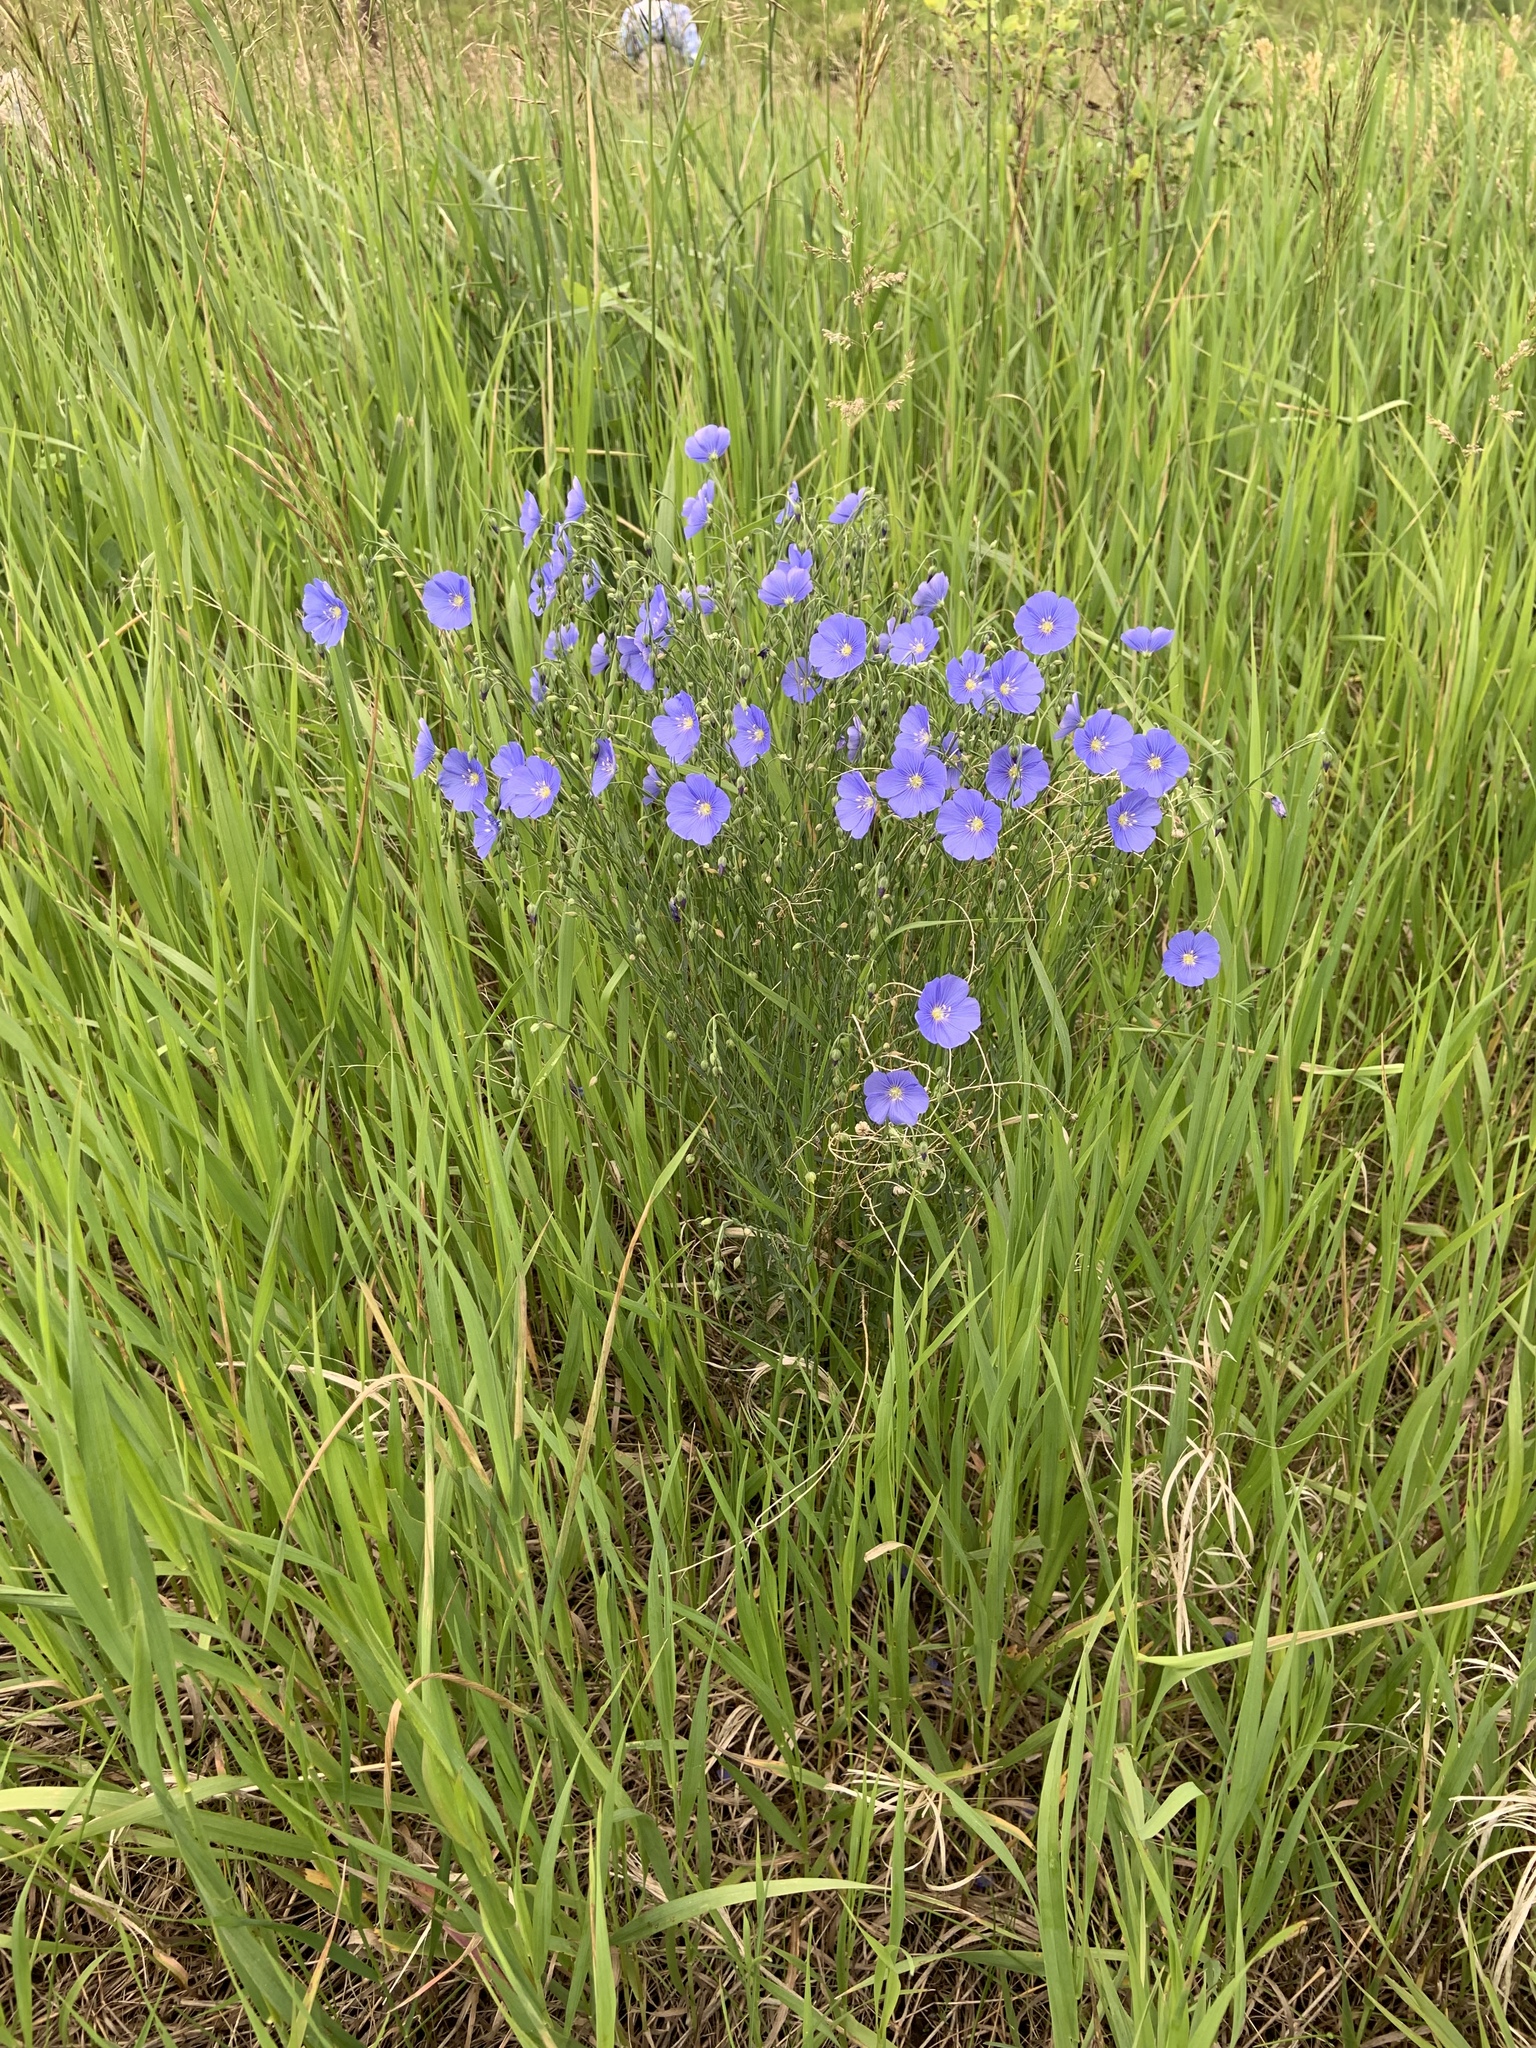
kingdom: Plantae
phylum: Tracheophyta
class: Magnoliopsida
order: Malpighiales
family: Linaceae
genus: Linum
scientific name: Linum lewisii
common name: Prairie flax
